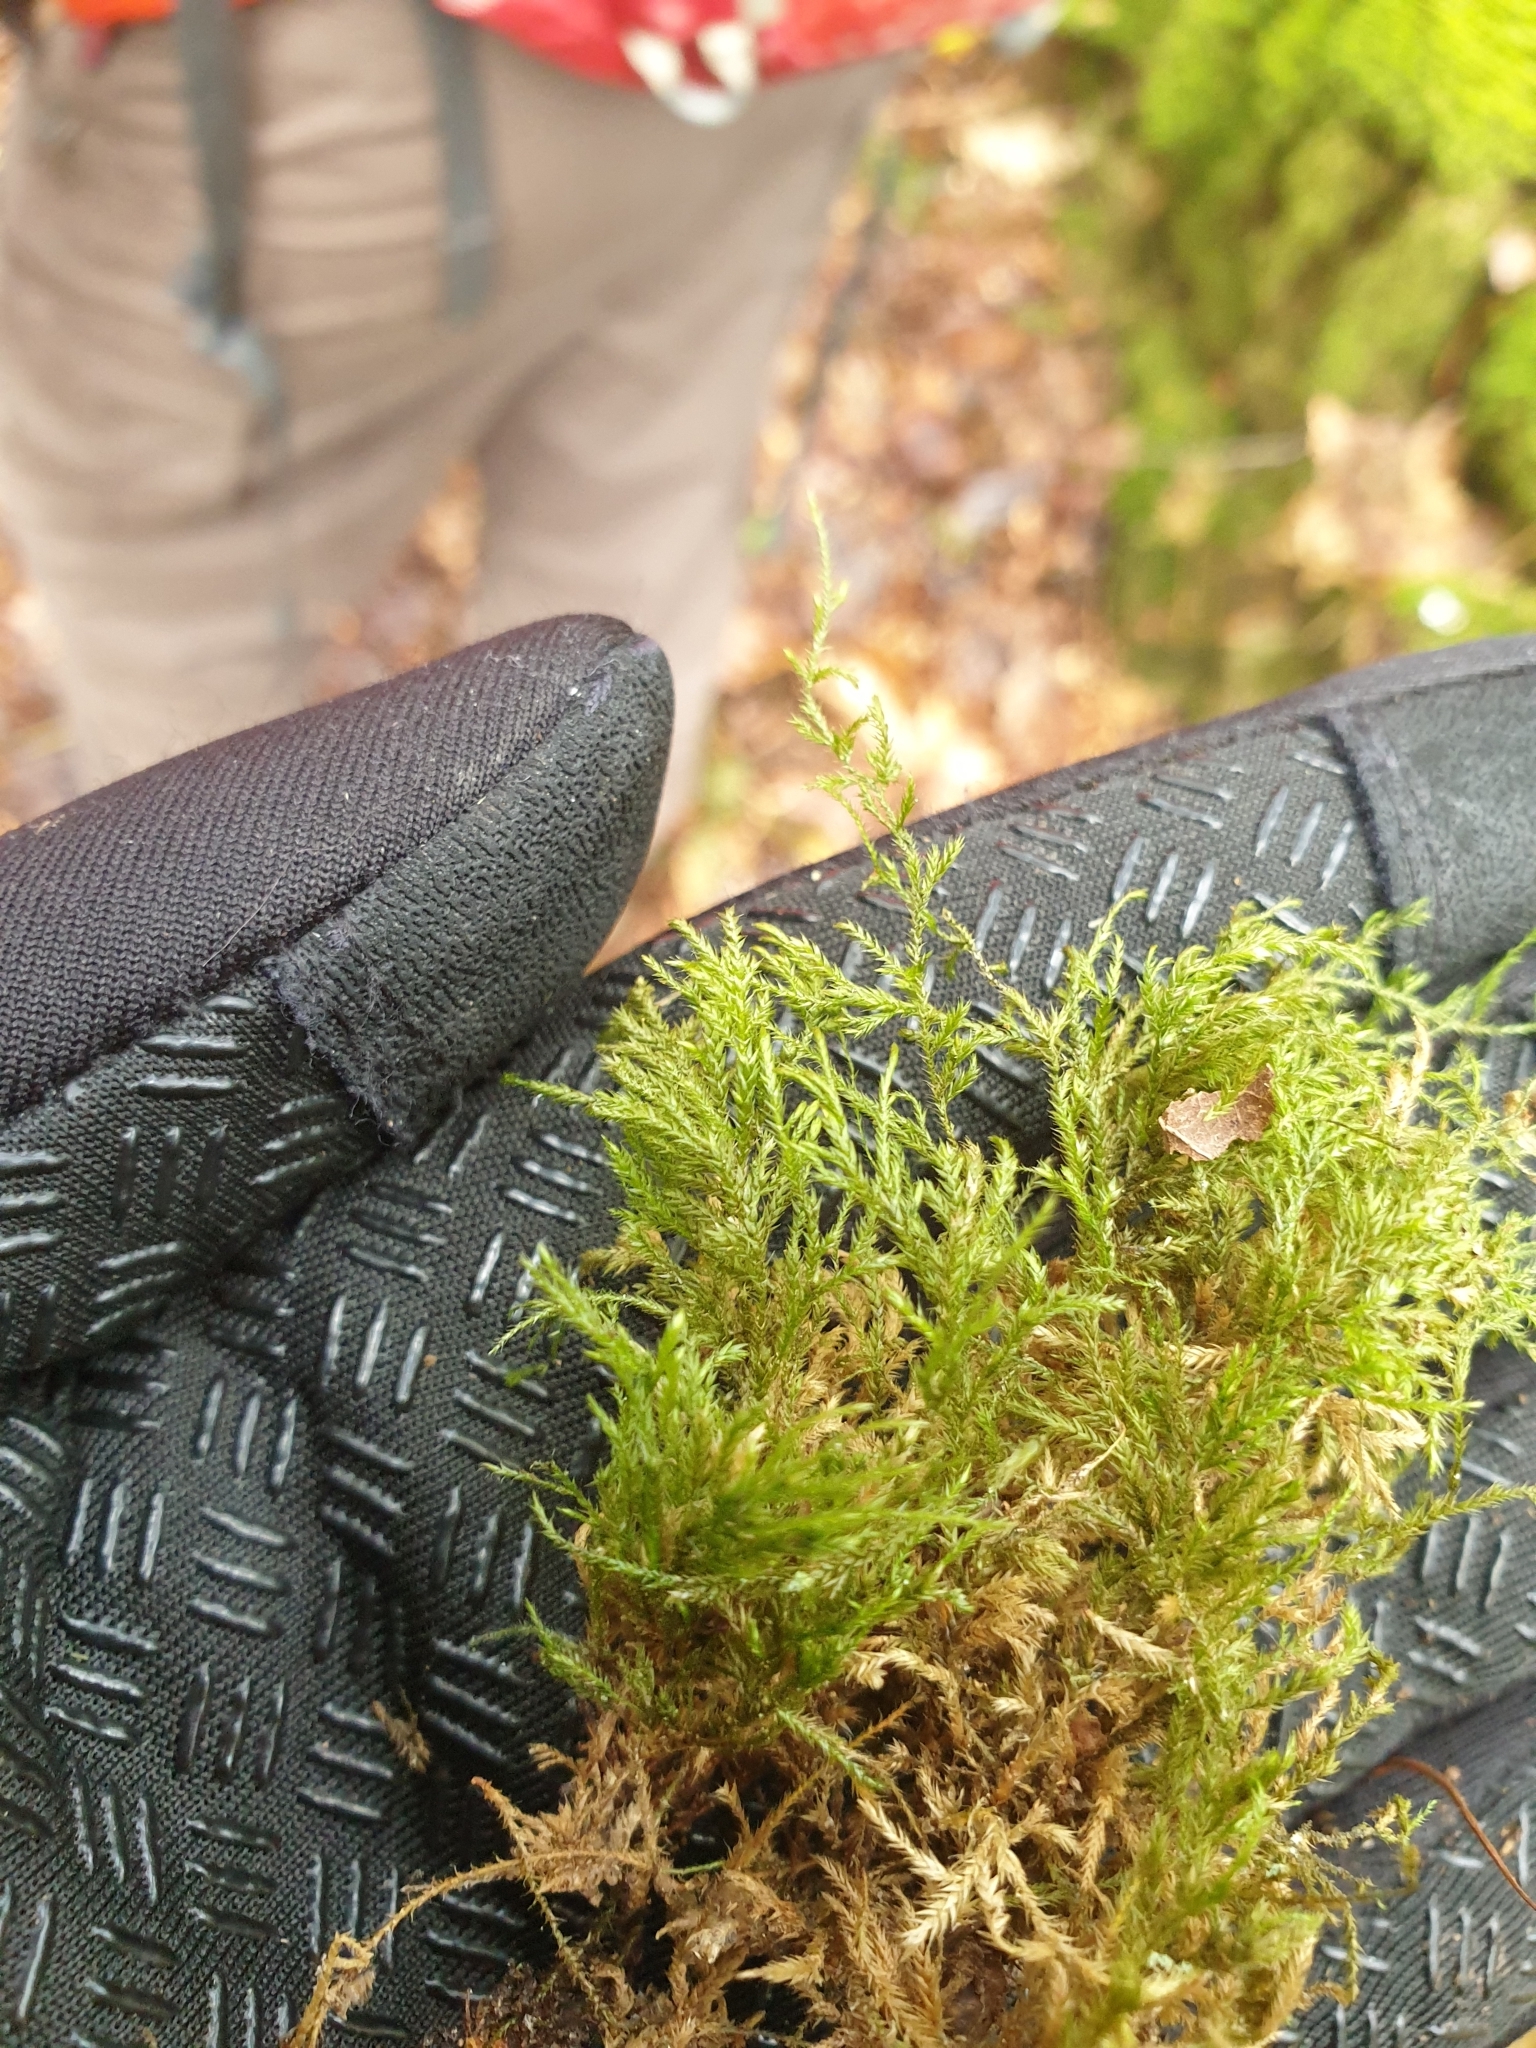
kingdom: Plantae
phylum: Bryophyta
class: Bryopsida
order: Hypnales
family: Lembophyllaceae
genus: Pseudisothecium
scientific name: Pseudisothecium myosuroides
